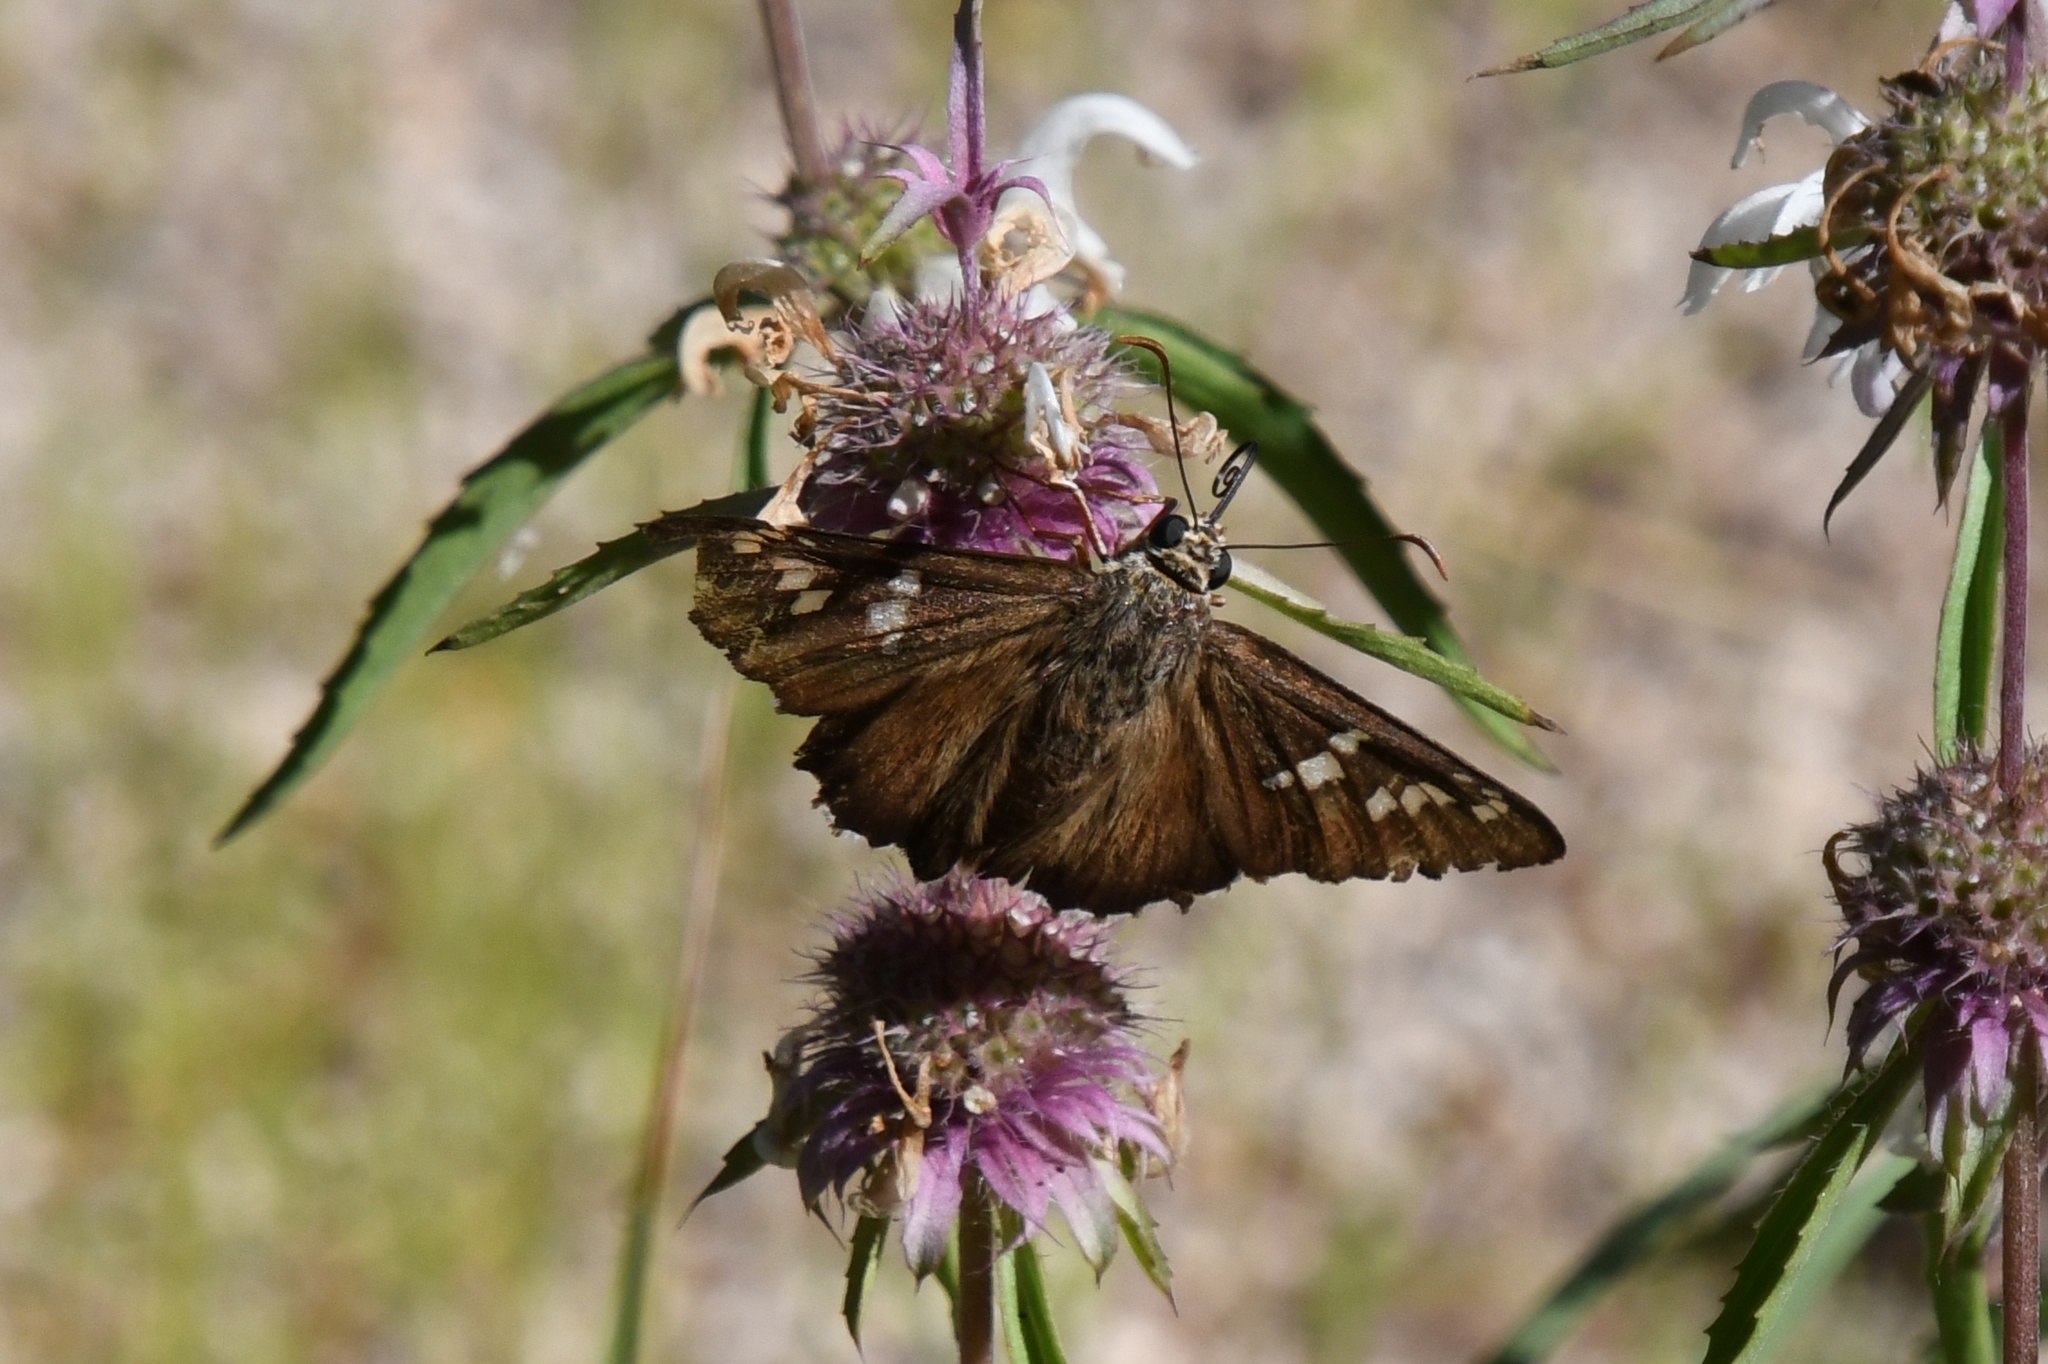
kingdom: Animalia
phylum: Arthropoda
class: Insecta
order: Lepidoptera
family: Hesperiidae
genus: Pyrrhopyge
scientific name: Pyrrhopyge araxes
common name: Dull firetip
